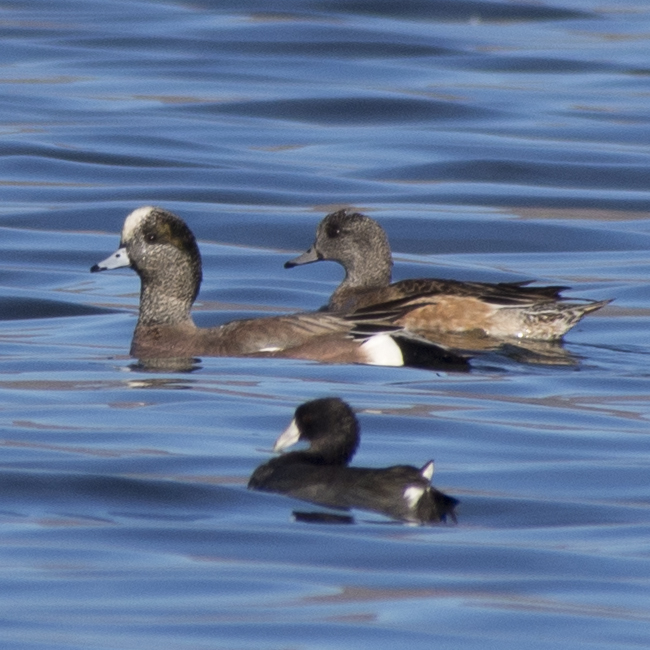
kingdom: Animalia
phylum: Chordata
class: Aves
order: Anseriformes
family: Anatidae
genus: Mareca
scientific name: Mareca americana
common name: American wigeon
